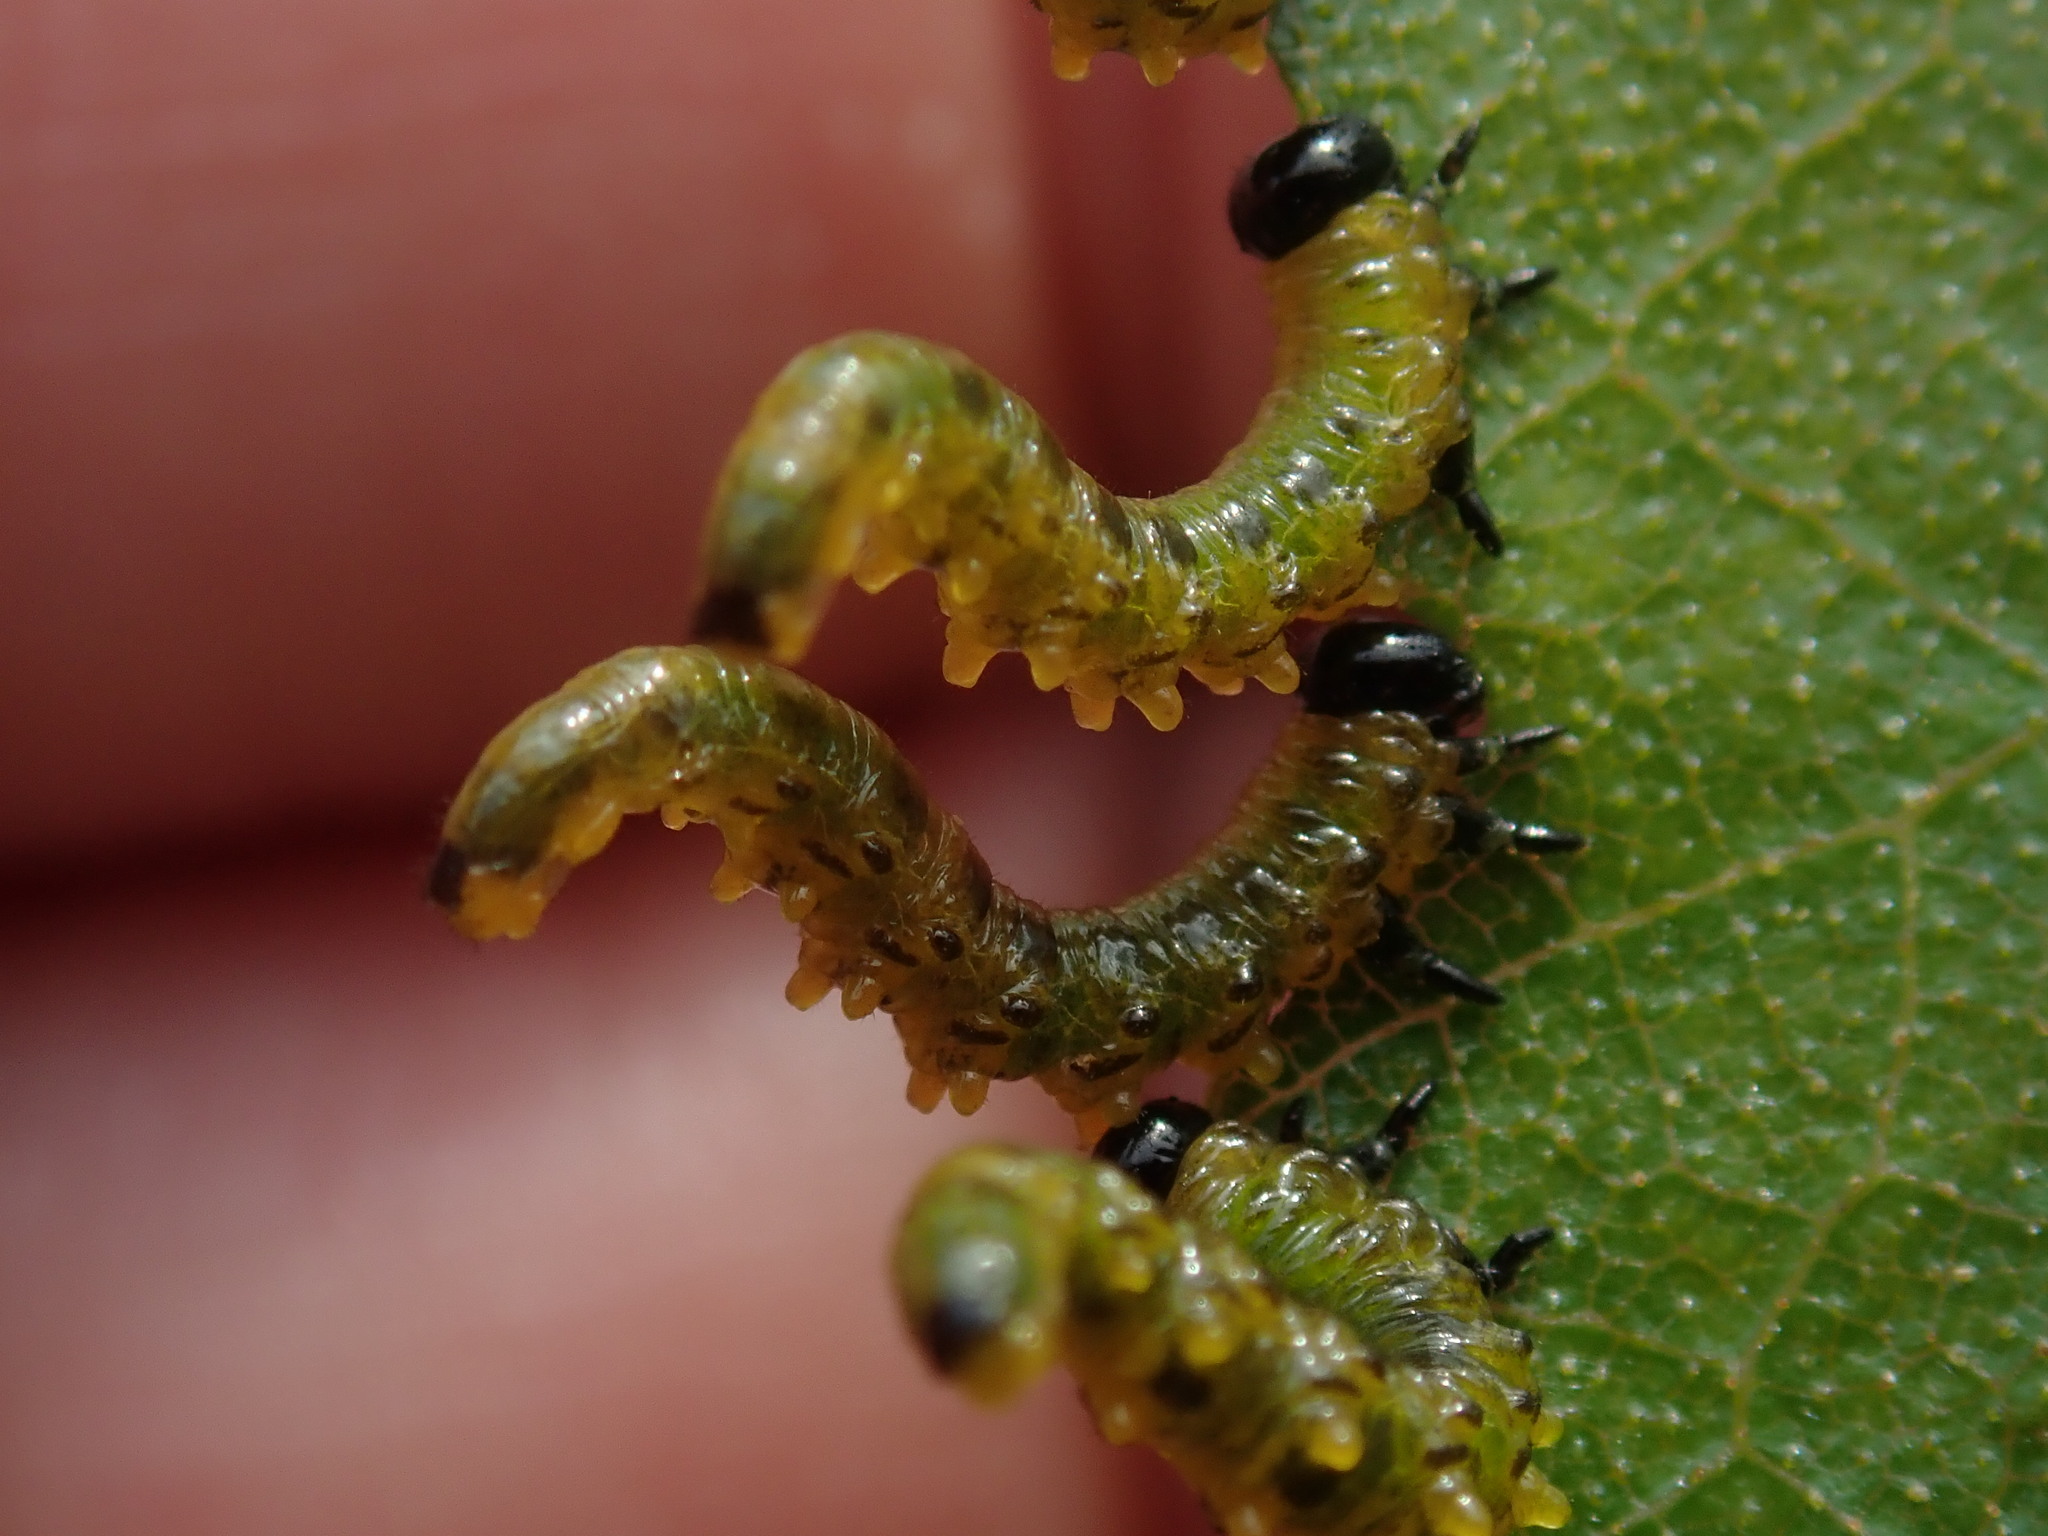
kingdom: Animalia
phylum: Arthropoda
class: Insecta
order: Hymenoptera
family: Tenthredinidae
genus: Nematus
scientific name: Nematus
